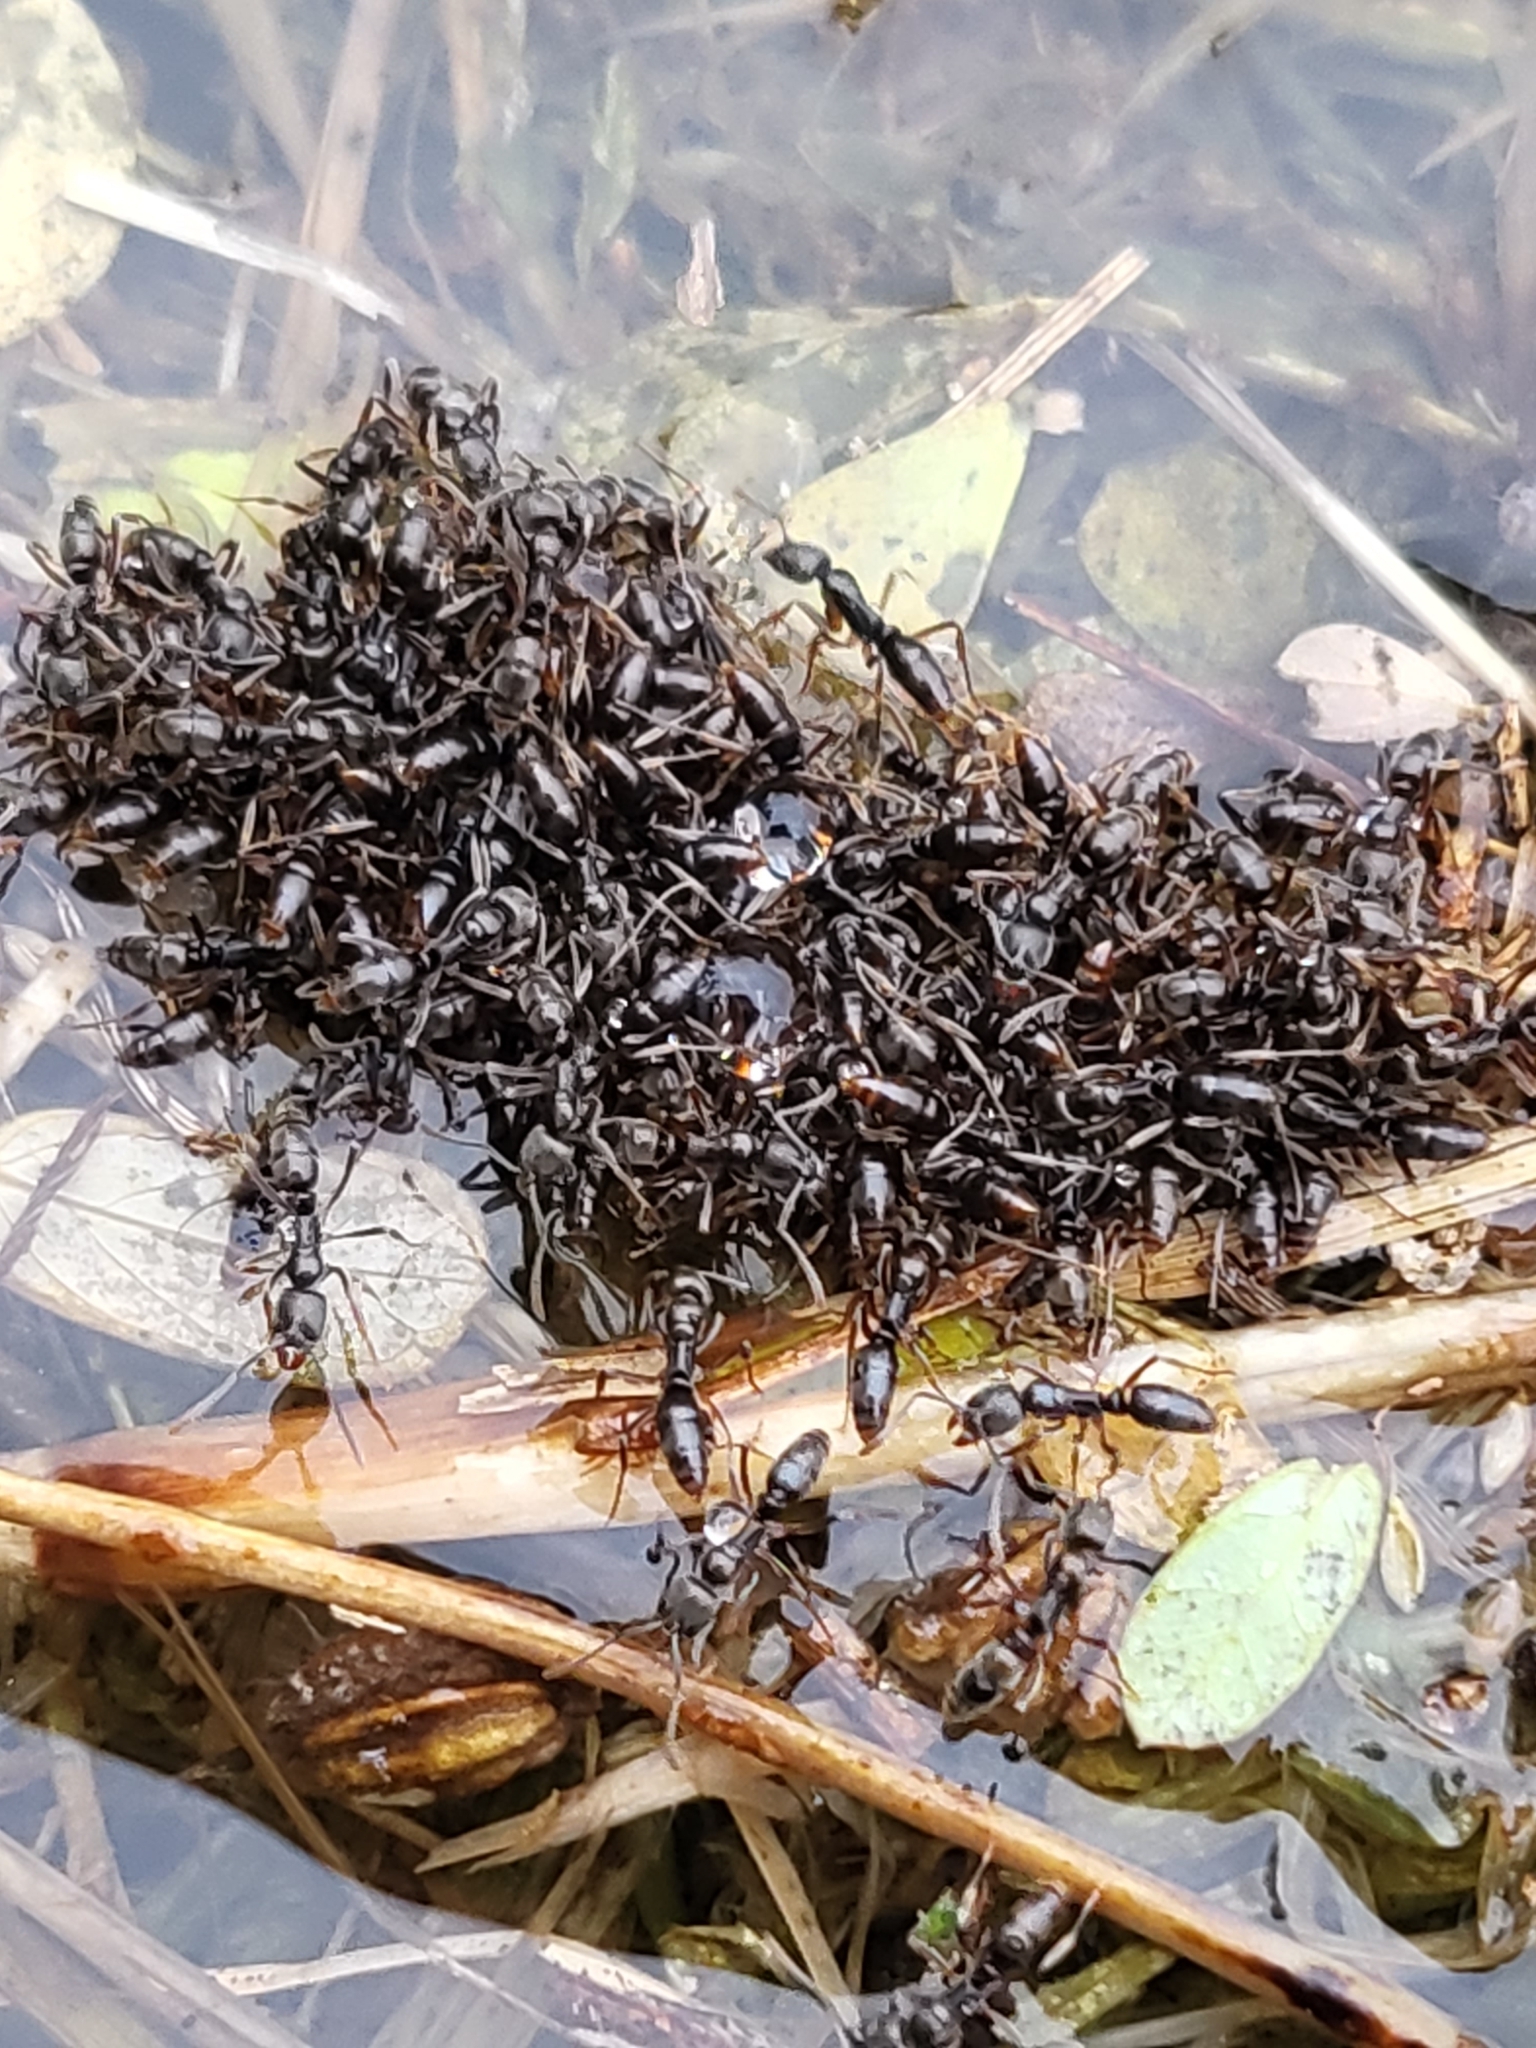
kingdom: Animalia
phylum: Arthropoda
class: Insecta
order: Hymenoptera
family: Formicidae
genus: Pachycondyla
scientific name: Pachycondyla chinensis
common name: Asian needle ant
